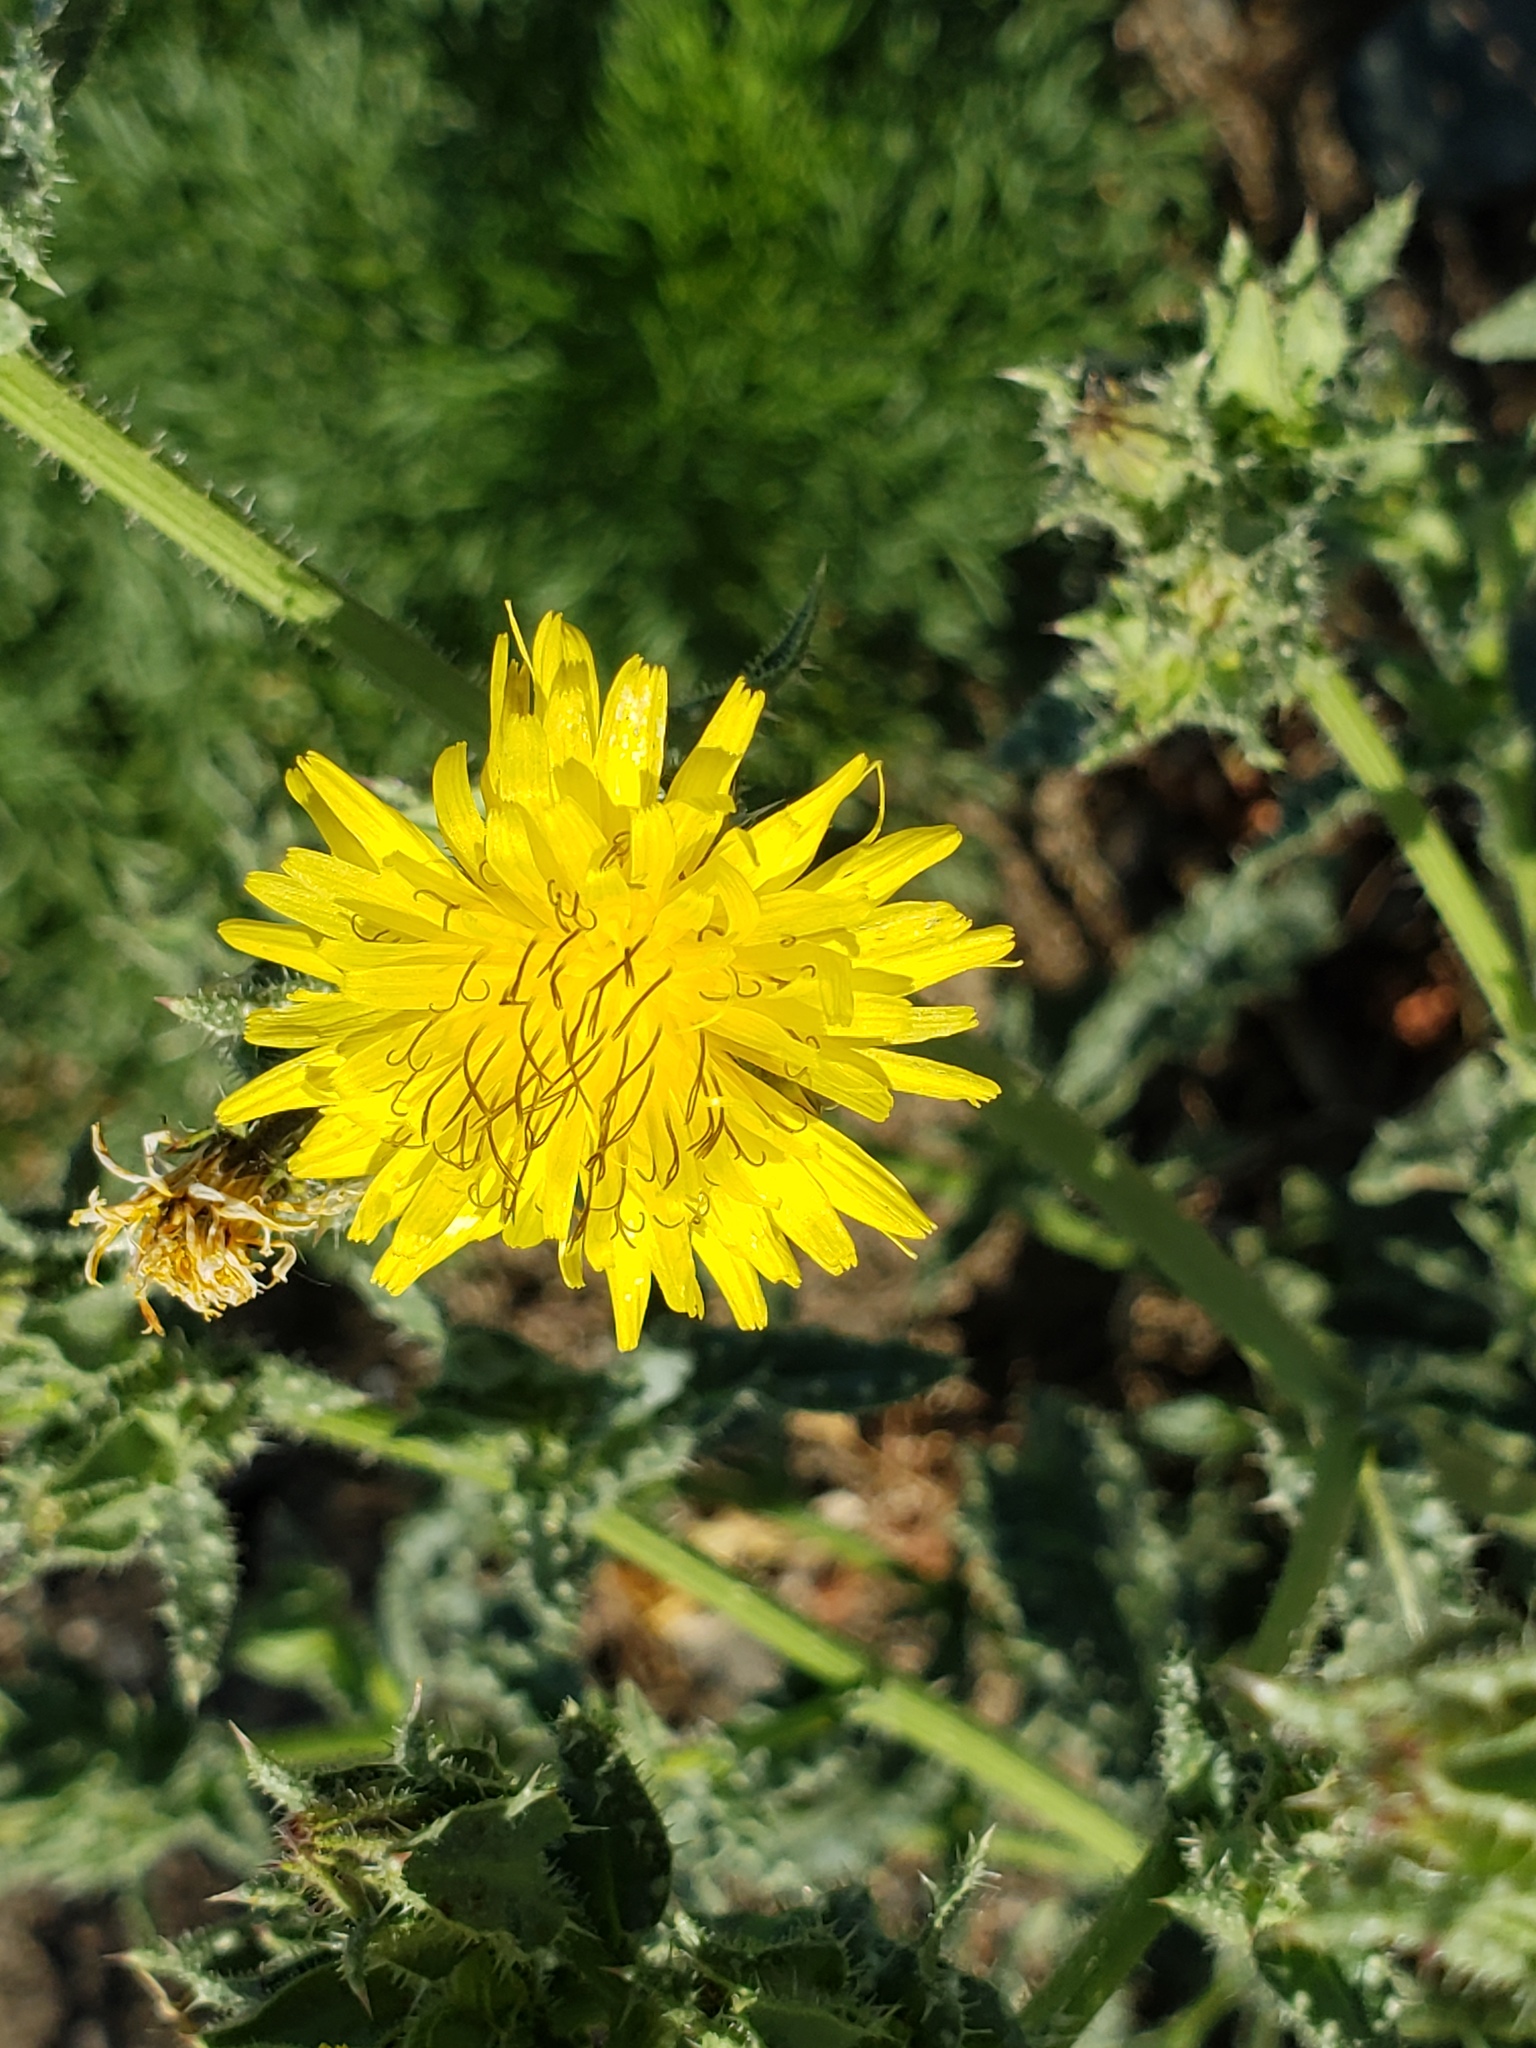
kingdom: Plantae
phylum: Tracheophyta
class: Magnoliopsida
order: Asterales
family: Asteraceae
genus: Helminthotheca
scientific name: Helminthotheca echioides
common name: Ox-tongue
